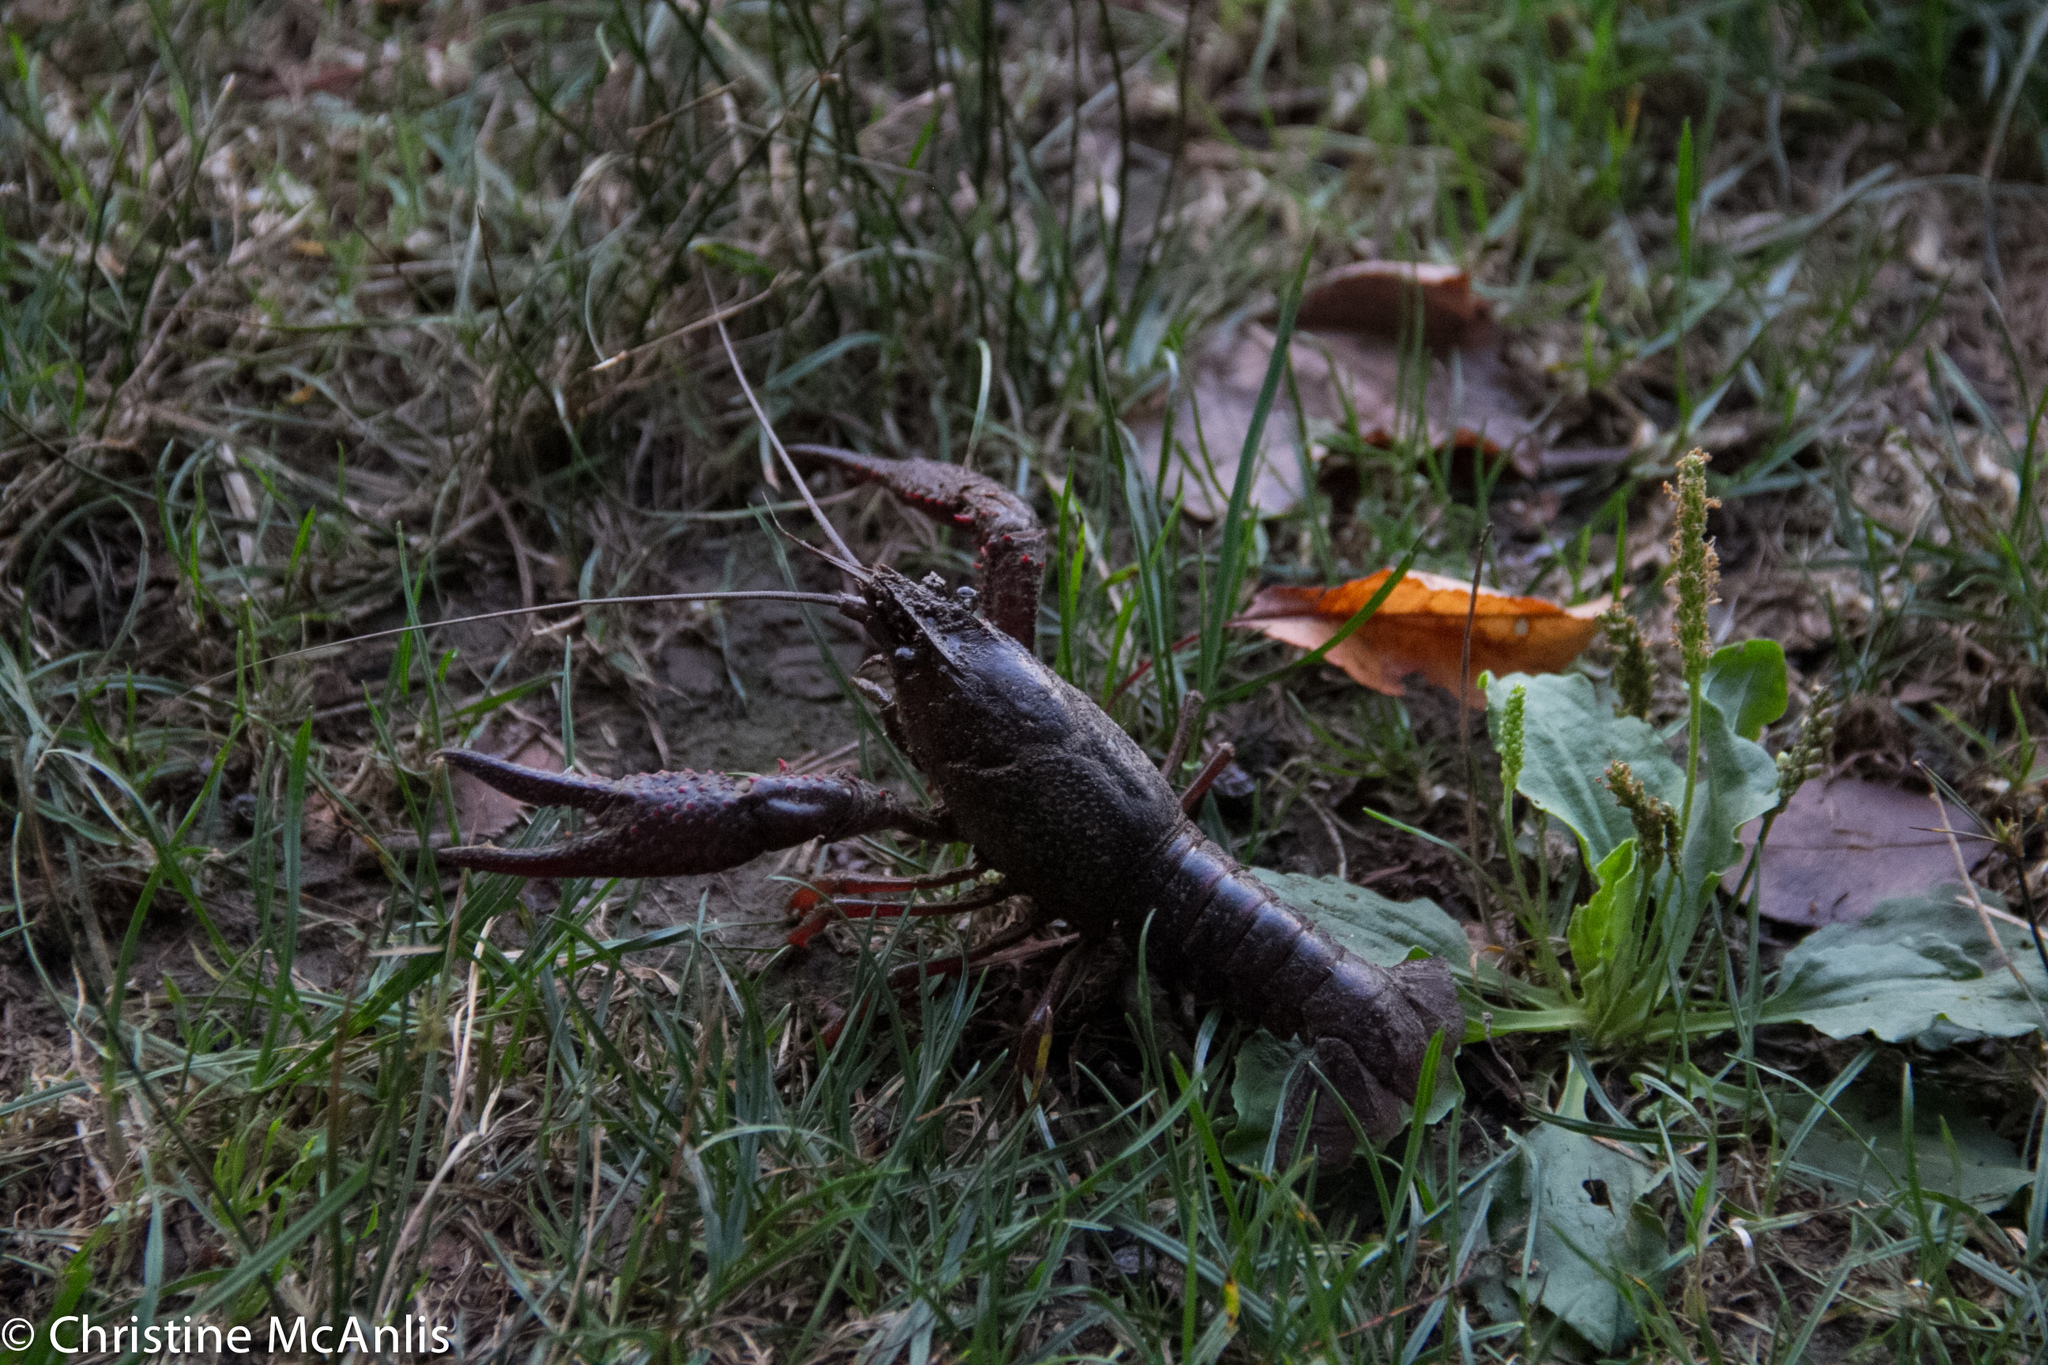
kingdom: Animalia
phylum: Arthropoda
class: Malacostraca
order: Decapoda
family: Cambaridae
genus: Procambarus
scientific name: Procambarus clarkii
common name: Red swamp crayfish
